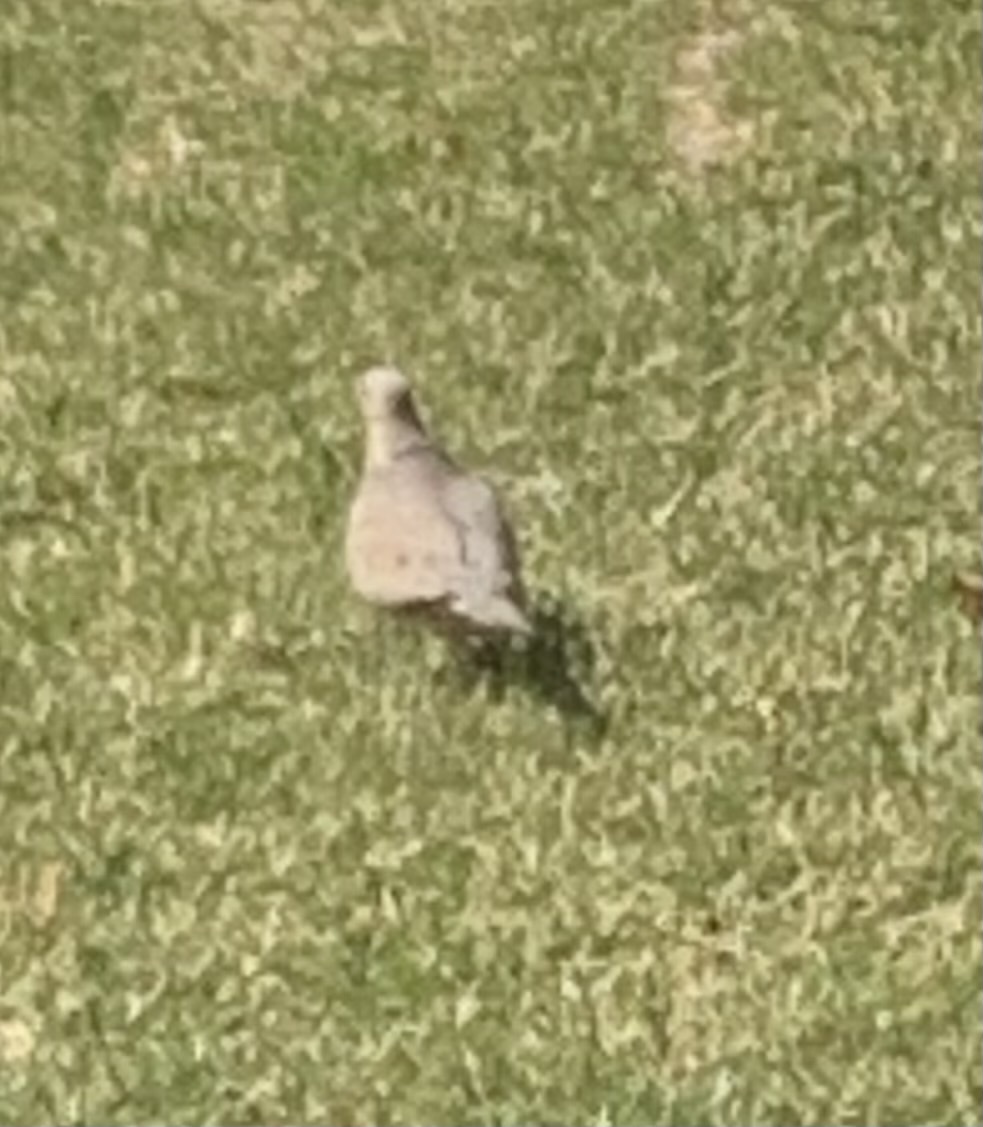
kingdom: Animalia
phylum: Chordata
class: Aves
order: Columbiformes
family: Columbidae
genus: Zenaida
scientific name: Zenaida macroura
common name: Mourning dove
